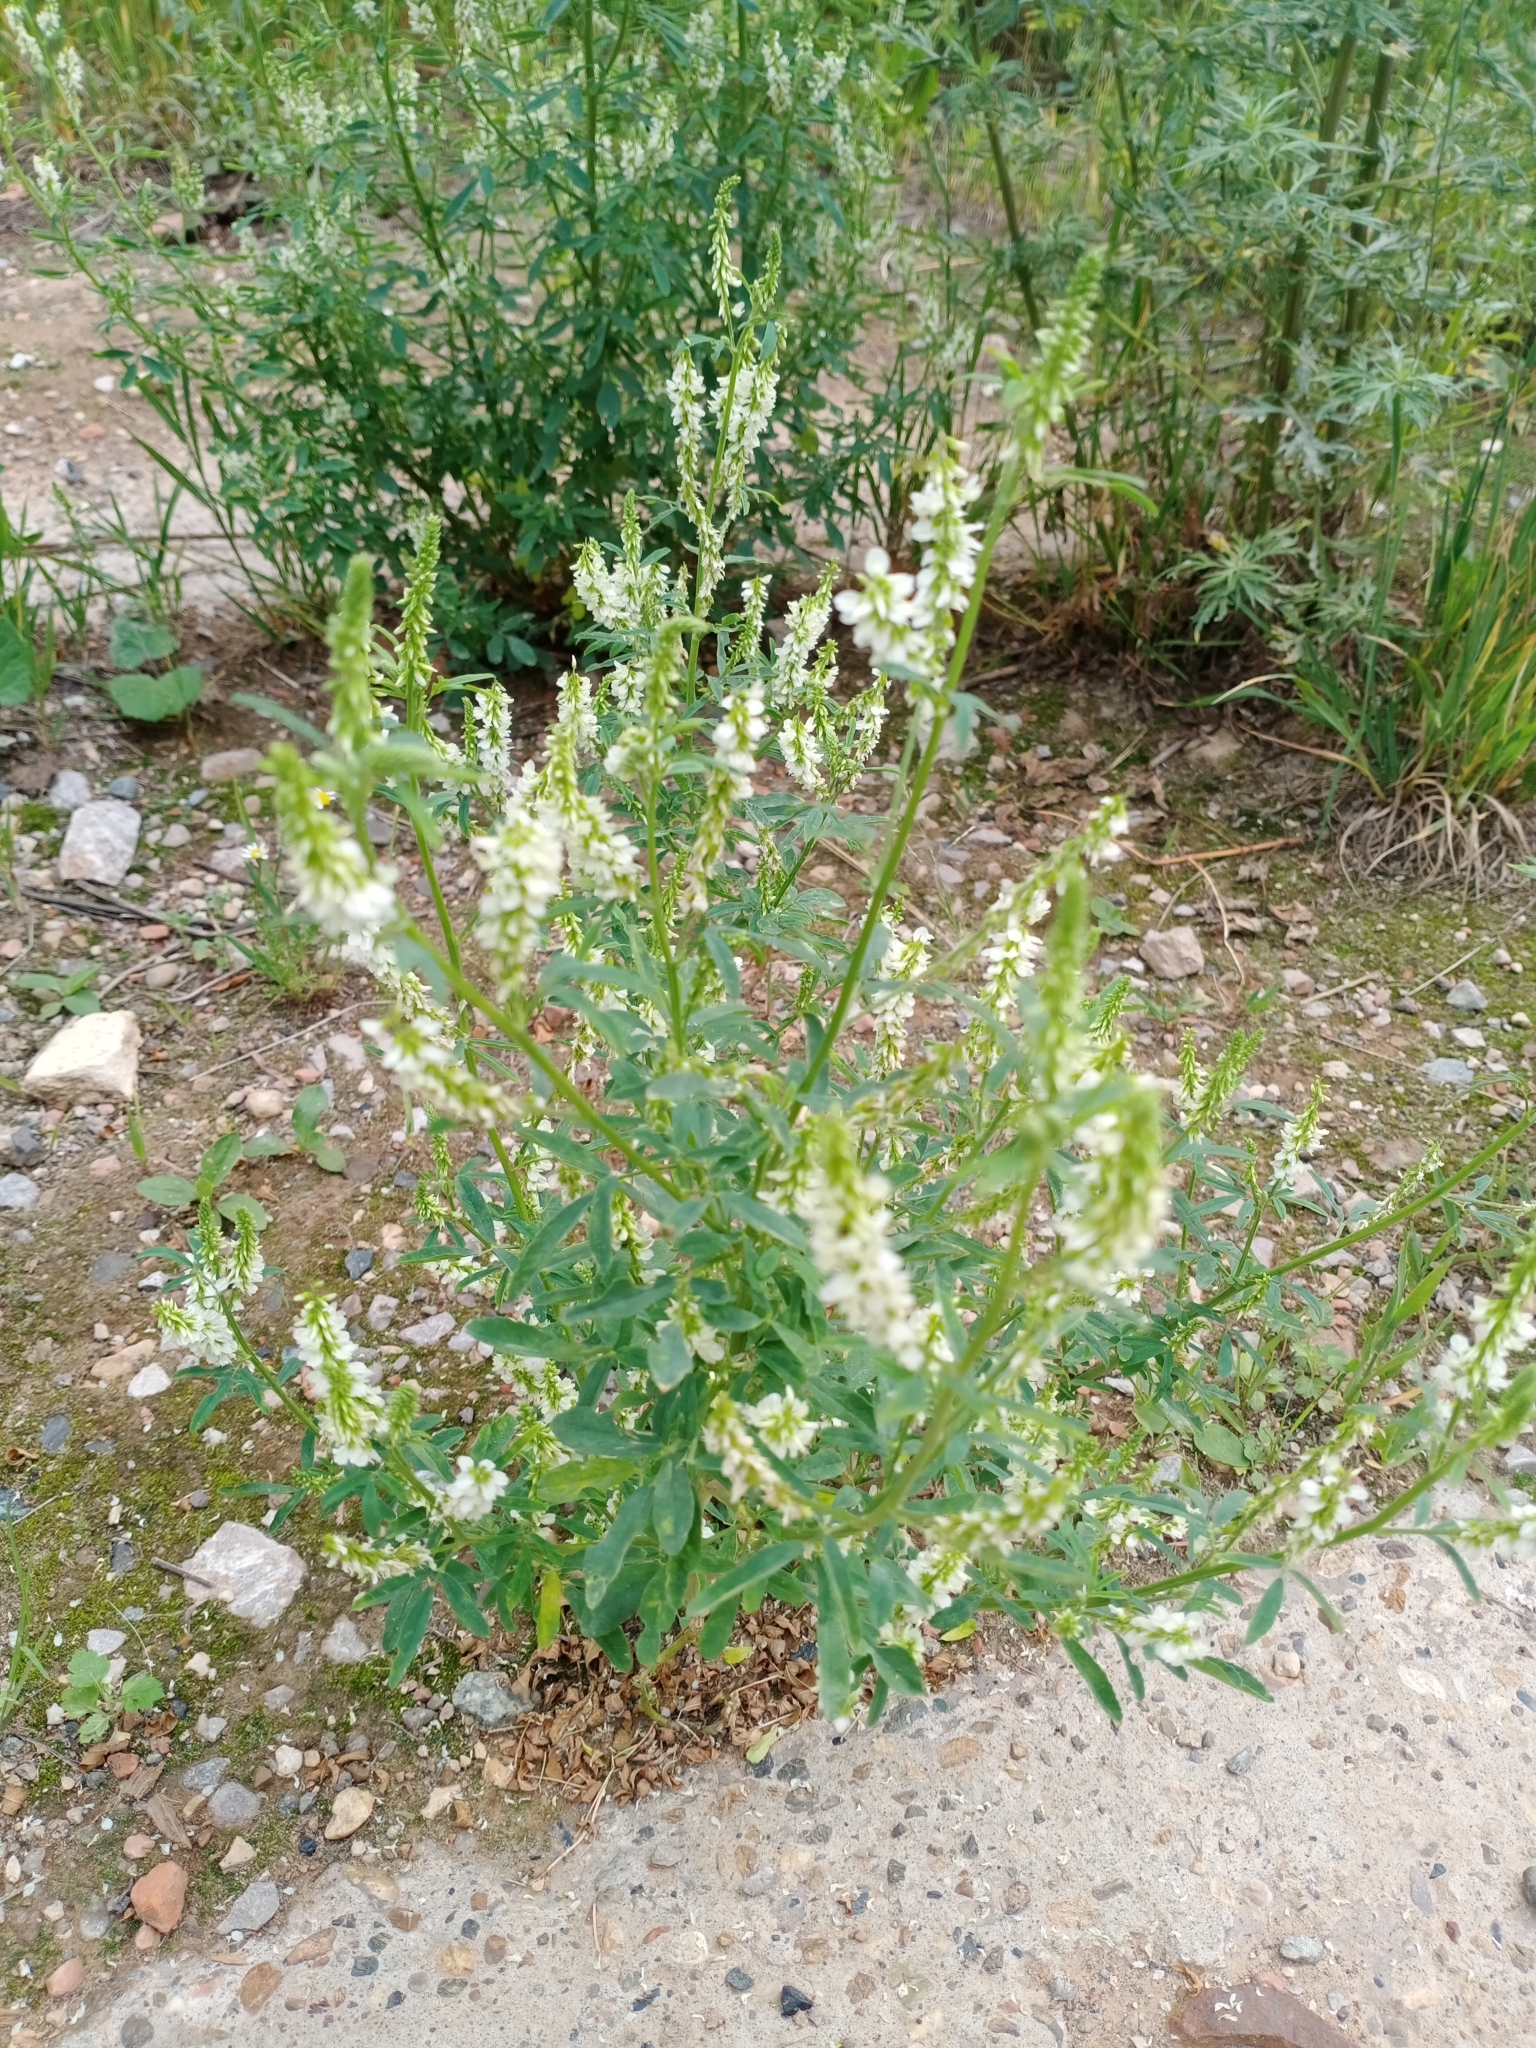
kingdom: Plantae
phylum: Tracheophyta
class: Magnoliopsida
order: Fabales
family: Fabaceae
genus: Melilotus
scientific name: Melilotus albus
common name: White melilot
